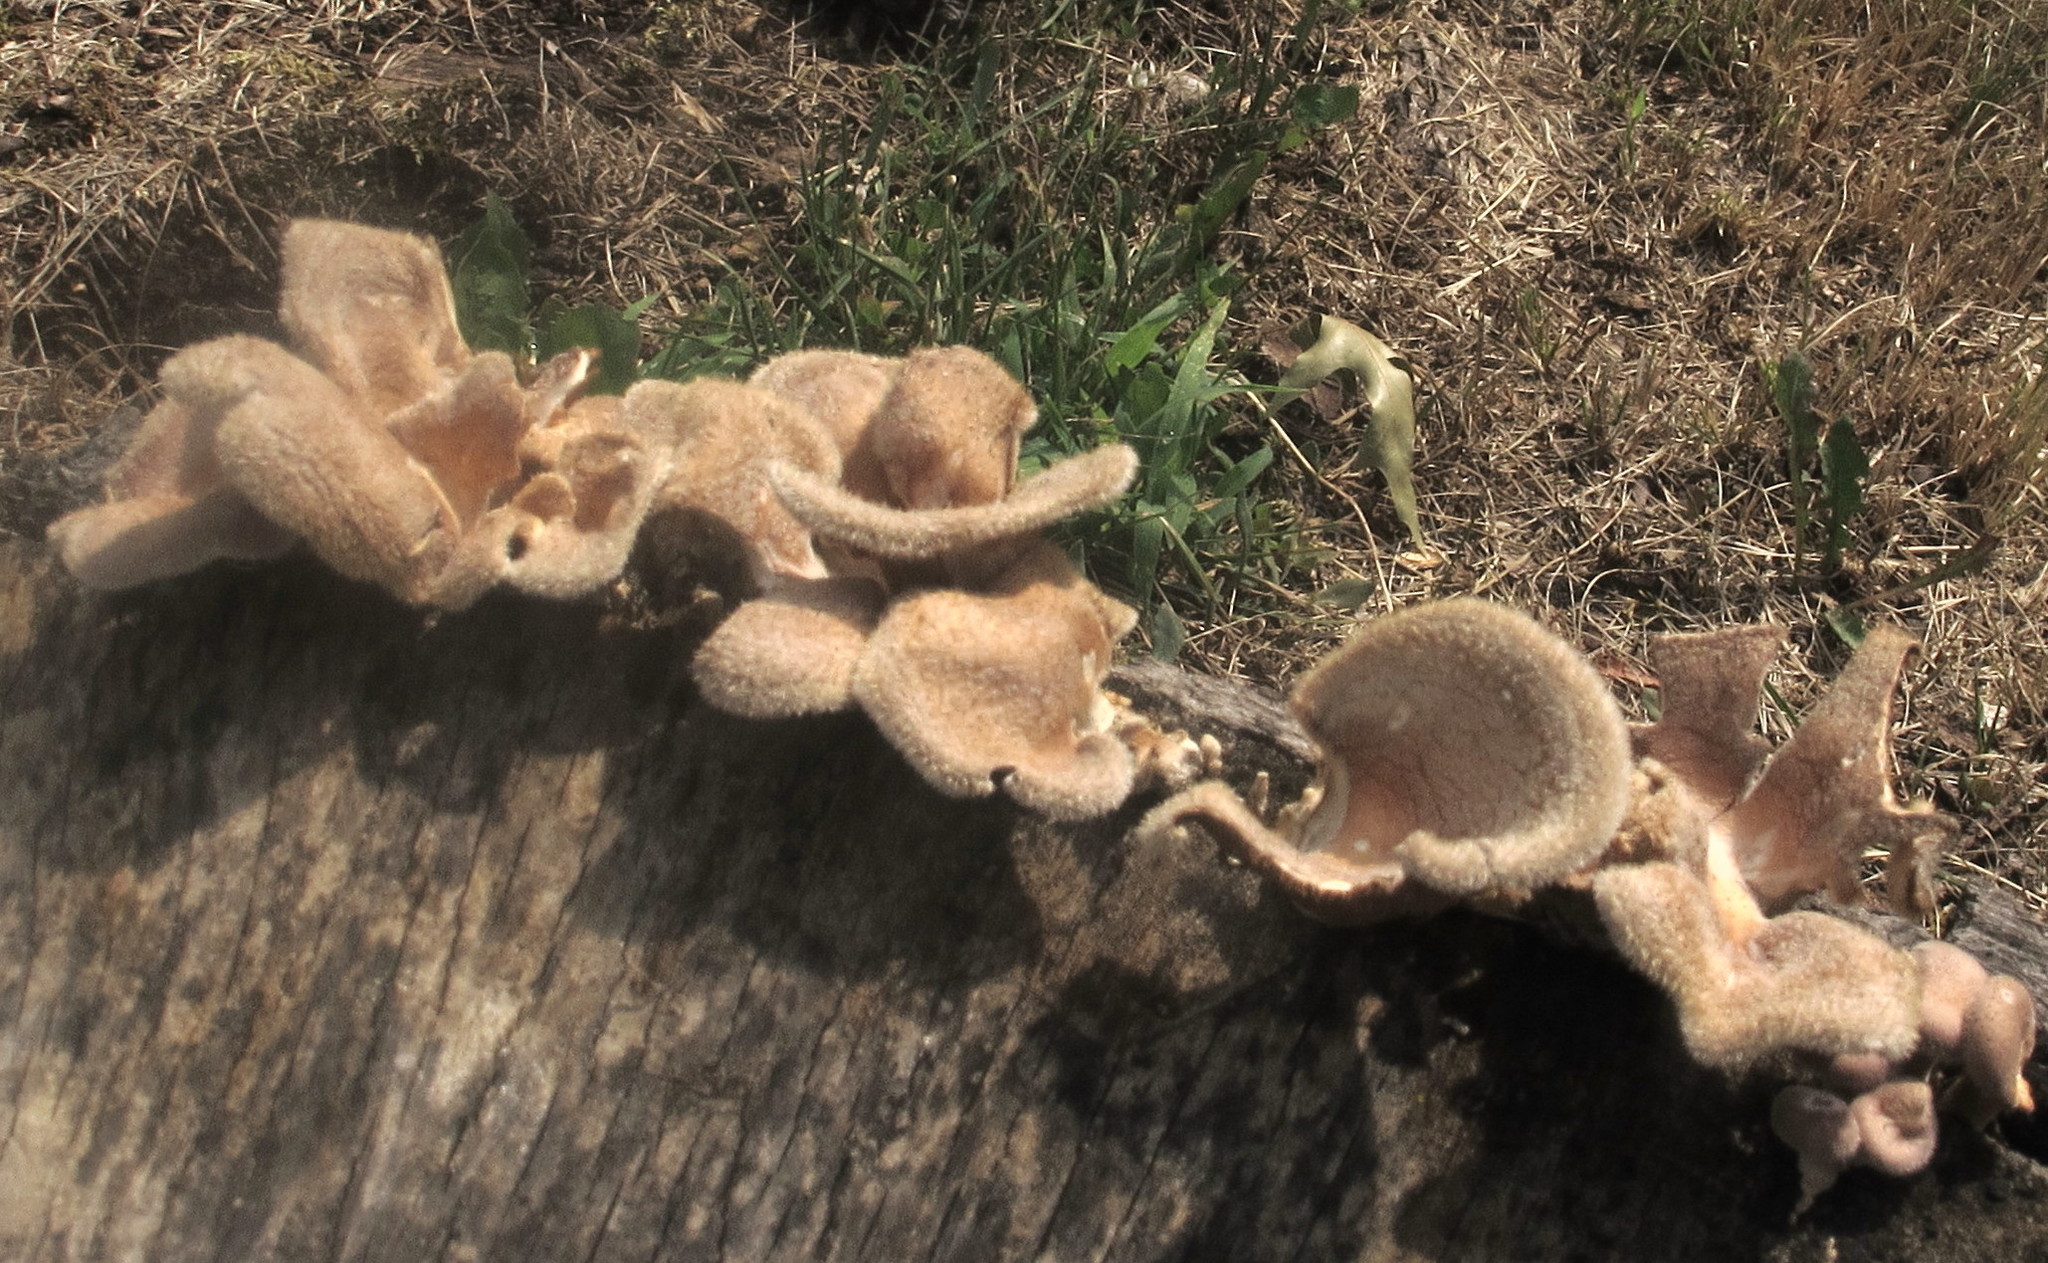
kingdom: Fungi
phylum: Basidiomycota
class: Agaricomycetes
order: Polyporales
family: Panaceae
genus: Panus
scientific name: Panus neostrigosus
